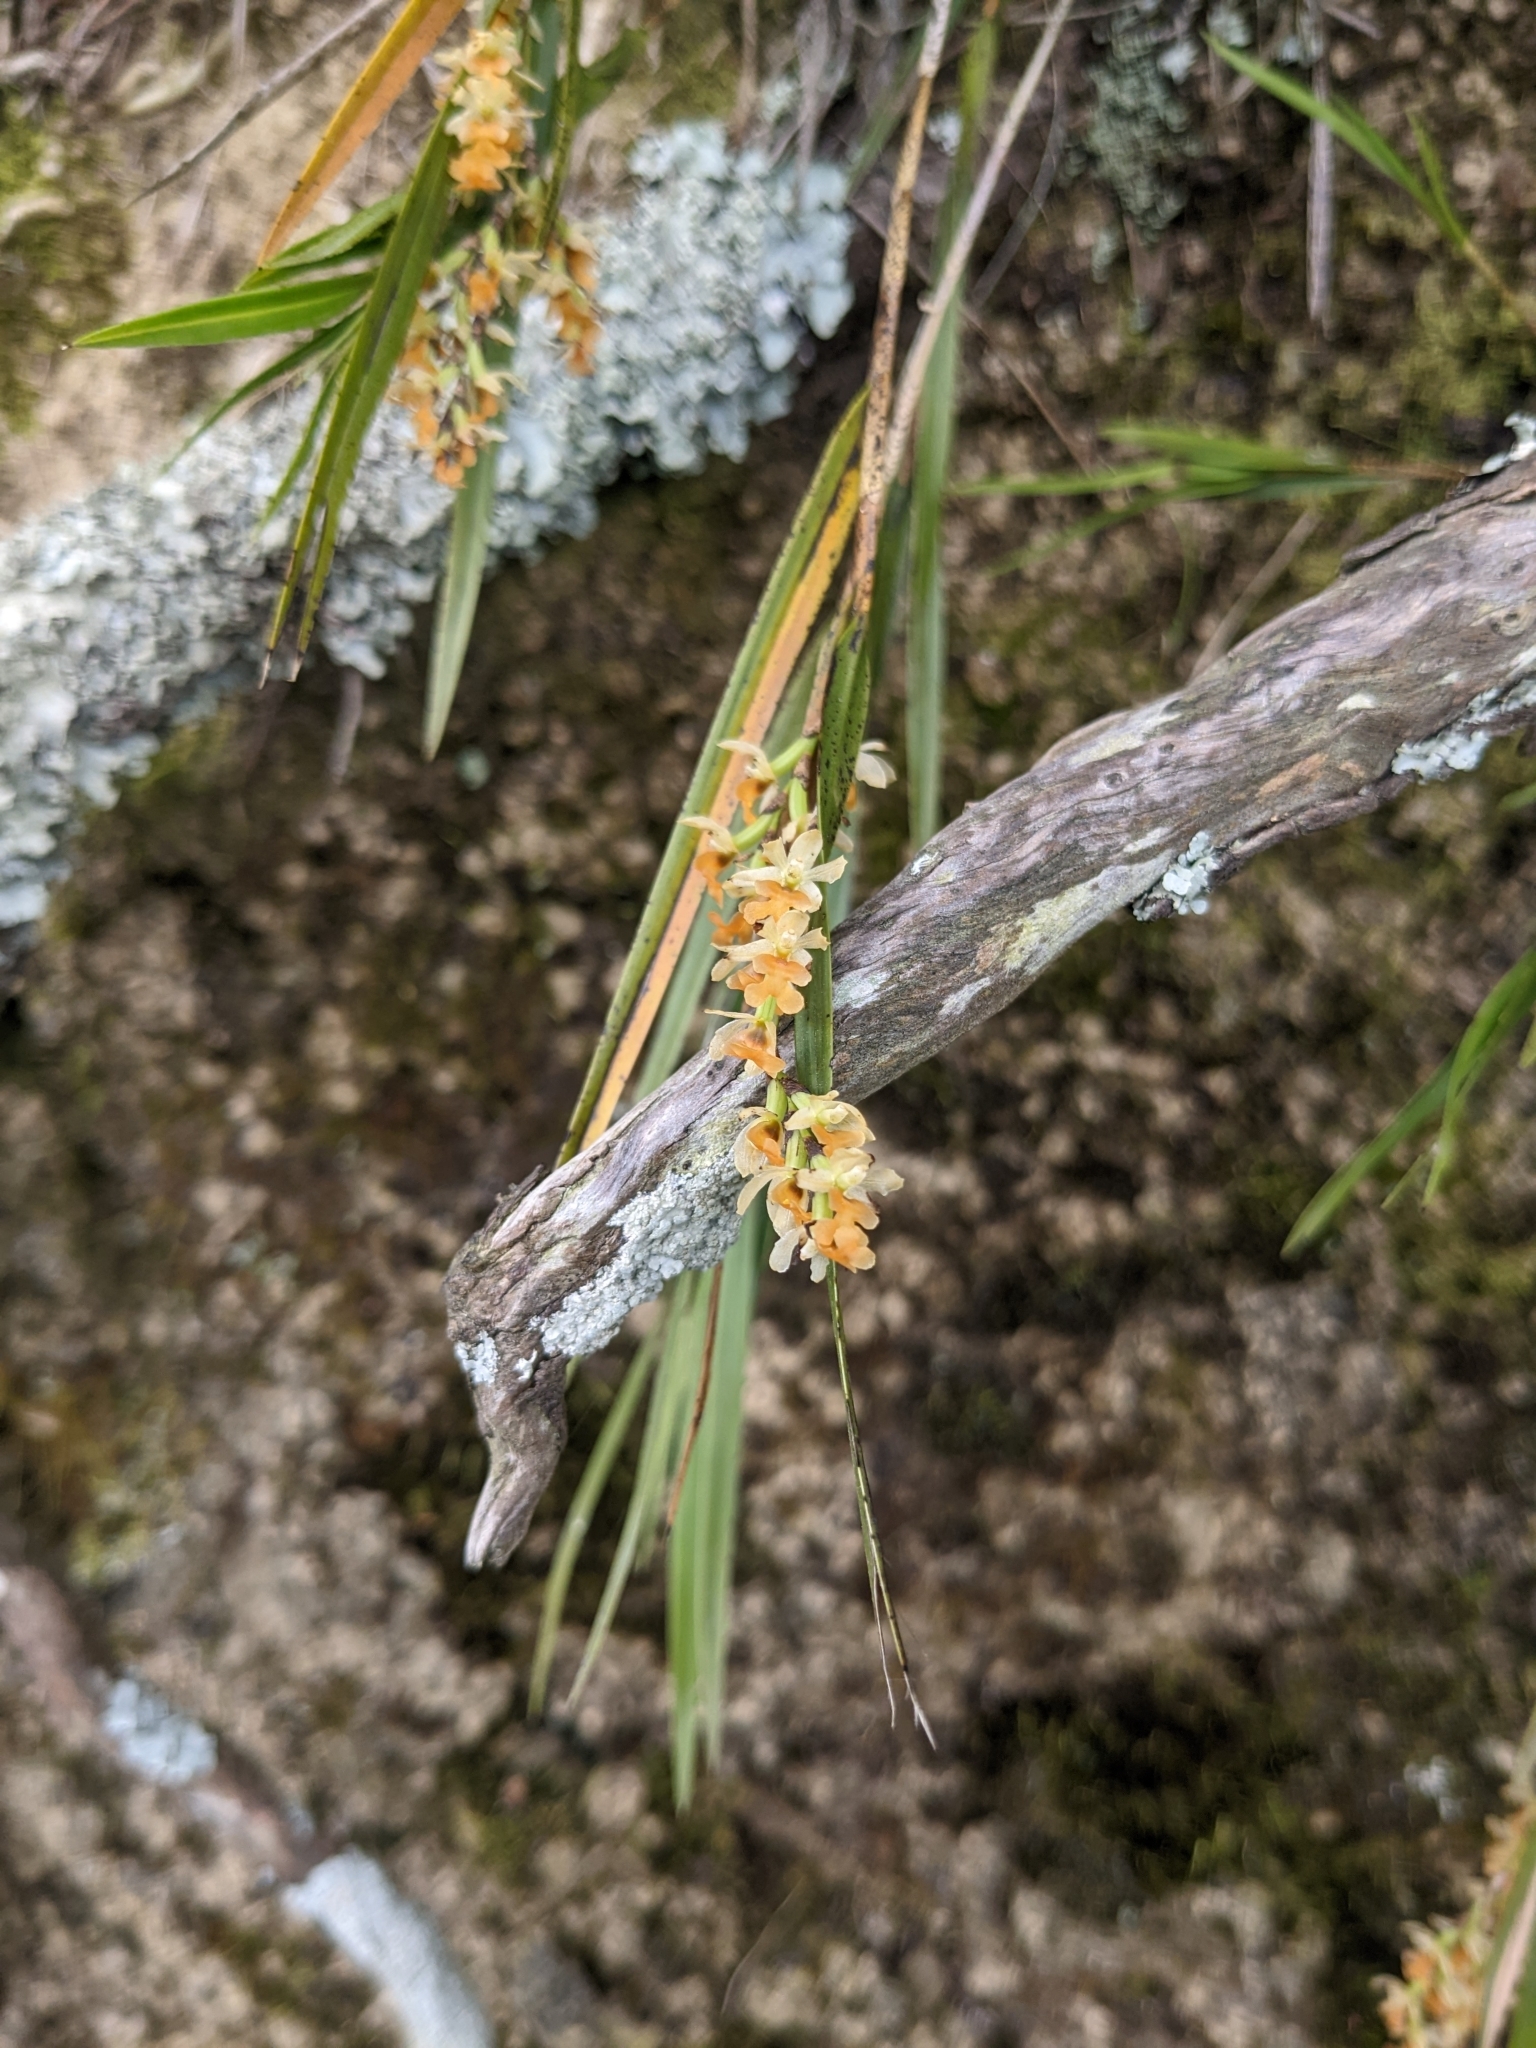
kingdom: Plantae
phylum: Tracheophyta
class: Liliopsida
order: Asparagales
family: Orchidaceae
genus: Earina
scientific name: Earina mucronata
